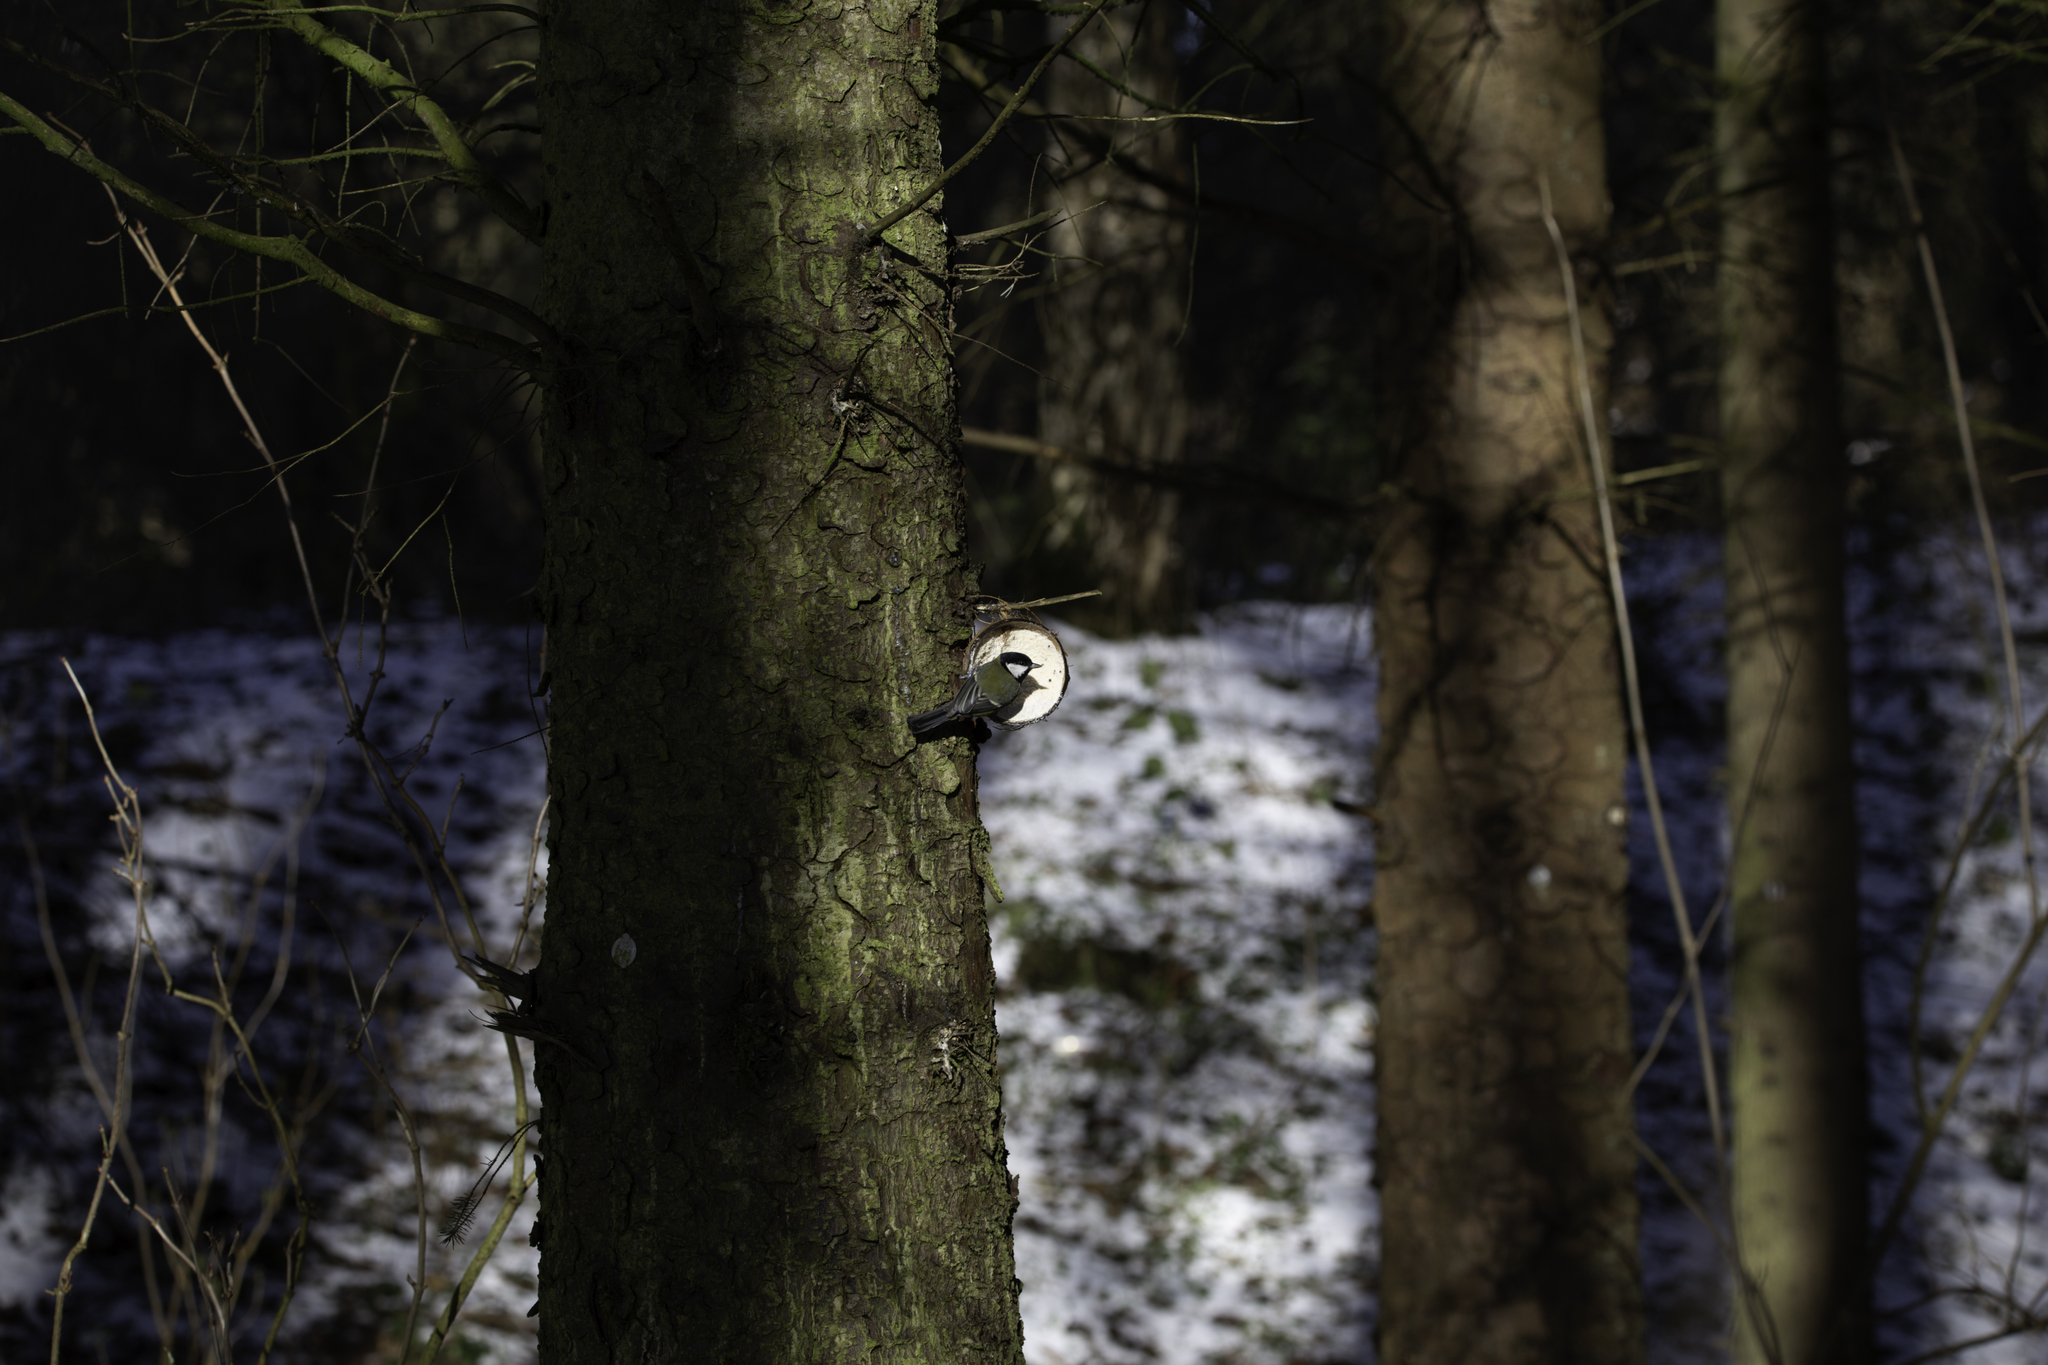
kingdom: Animalia
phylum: Chordata
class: Aves
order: Passeriformes
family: Paridae
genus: Parus
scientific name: Parus major
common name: Great tit
